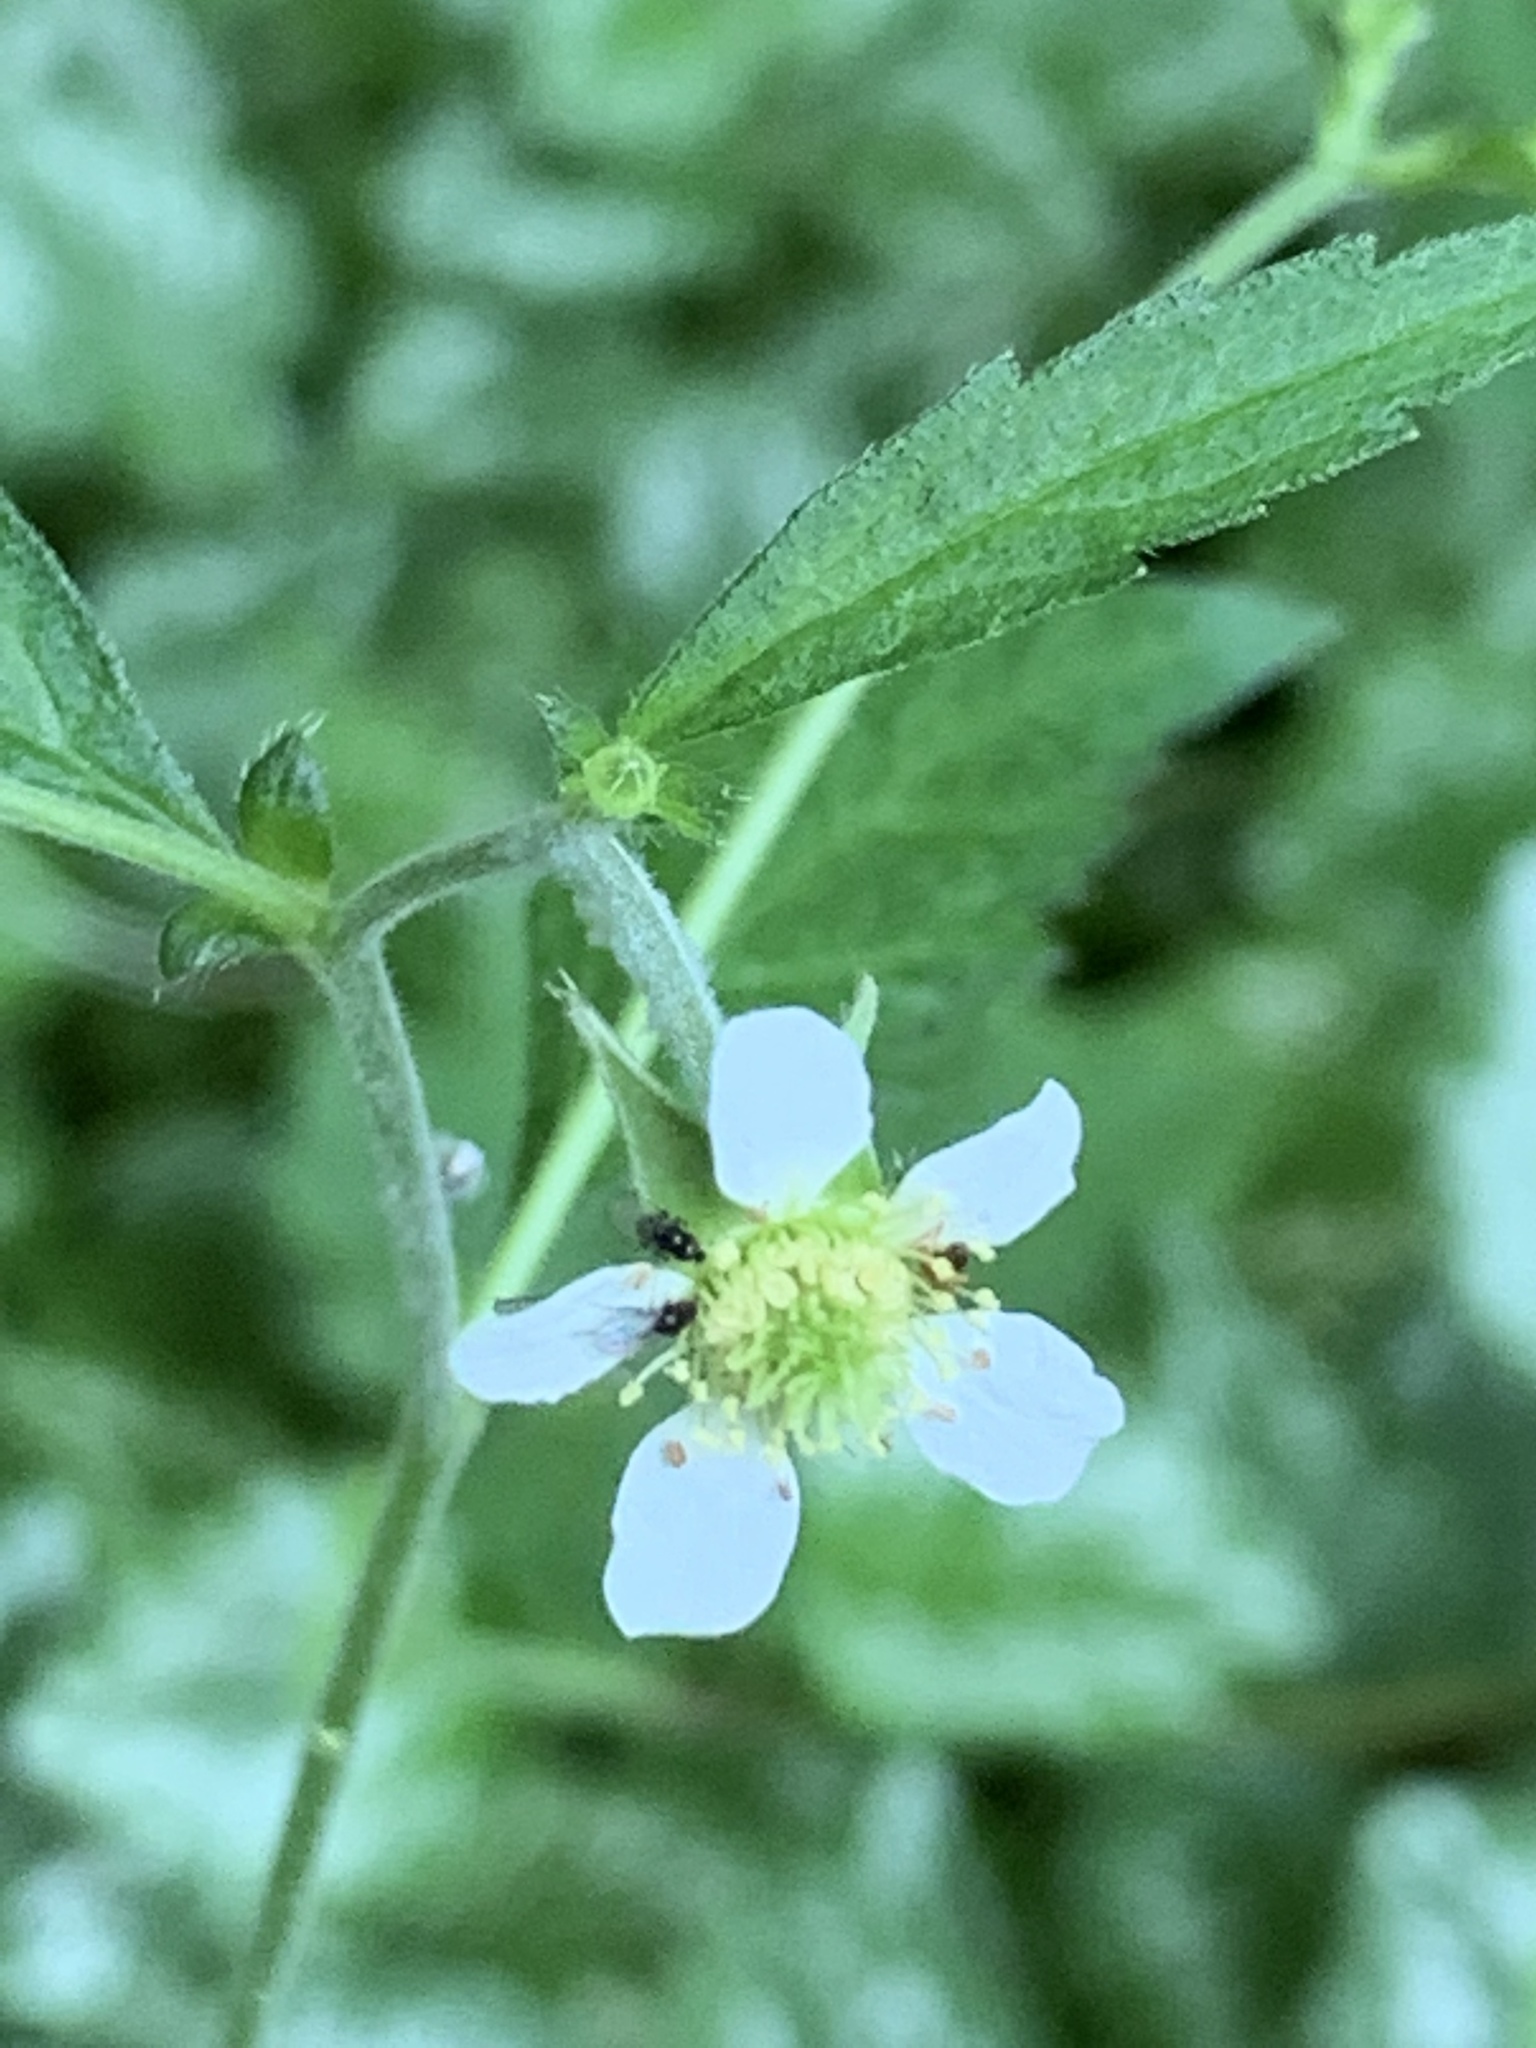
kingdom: Plantae
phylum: Tracheophyta
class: Magnoliopsida
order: Rosales
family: Rosaceae
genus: Geum
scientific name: Geum canadense
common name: White avens
